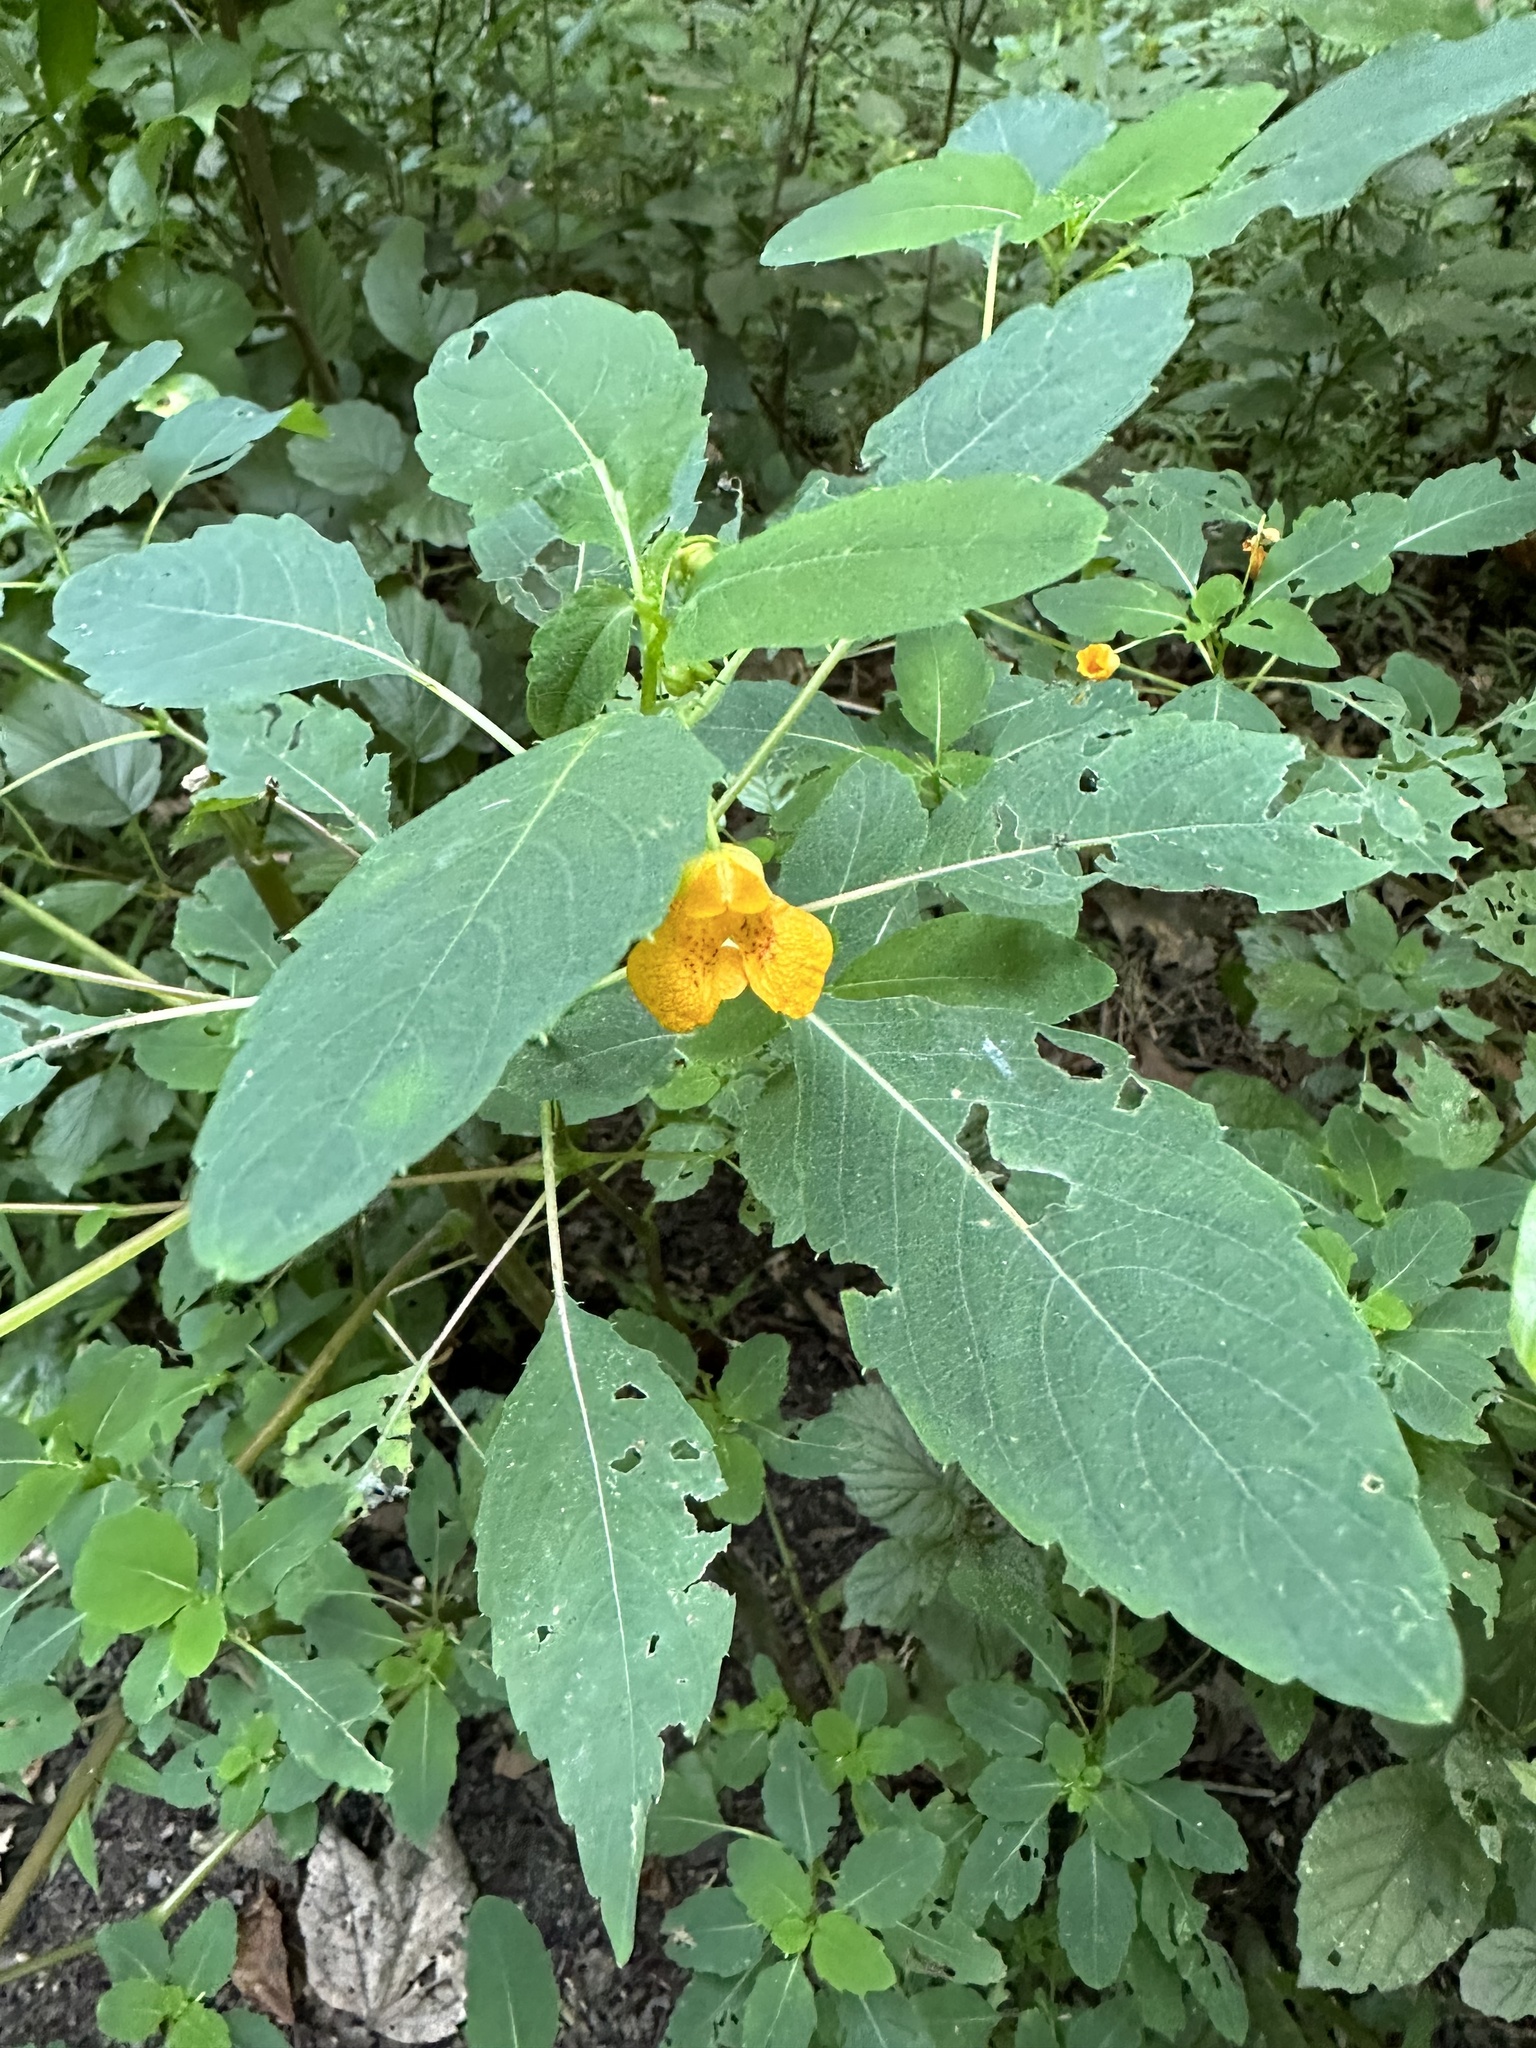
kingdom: Plantae
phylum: Tracheophyta
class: Magnoliopsida
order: Ericales
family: Balsaminaceae
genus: Impatiens
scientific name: Impatiens capensis
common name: Orange balsam
